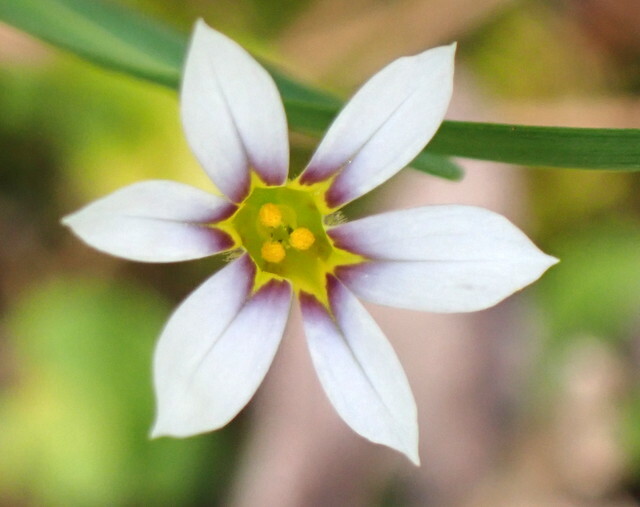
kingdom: Plantae
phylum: Tracheophyta
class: Liliopsida
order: Asparagales
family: Iridaceae
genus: Sisyrinchium
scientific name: Sisyrinchium micranthum
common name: Bermuda pigroot
